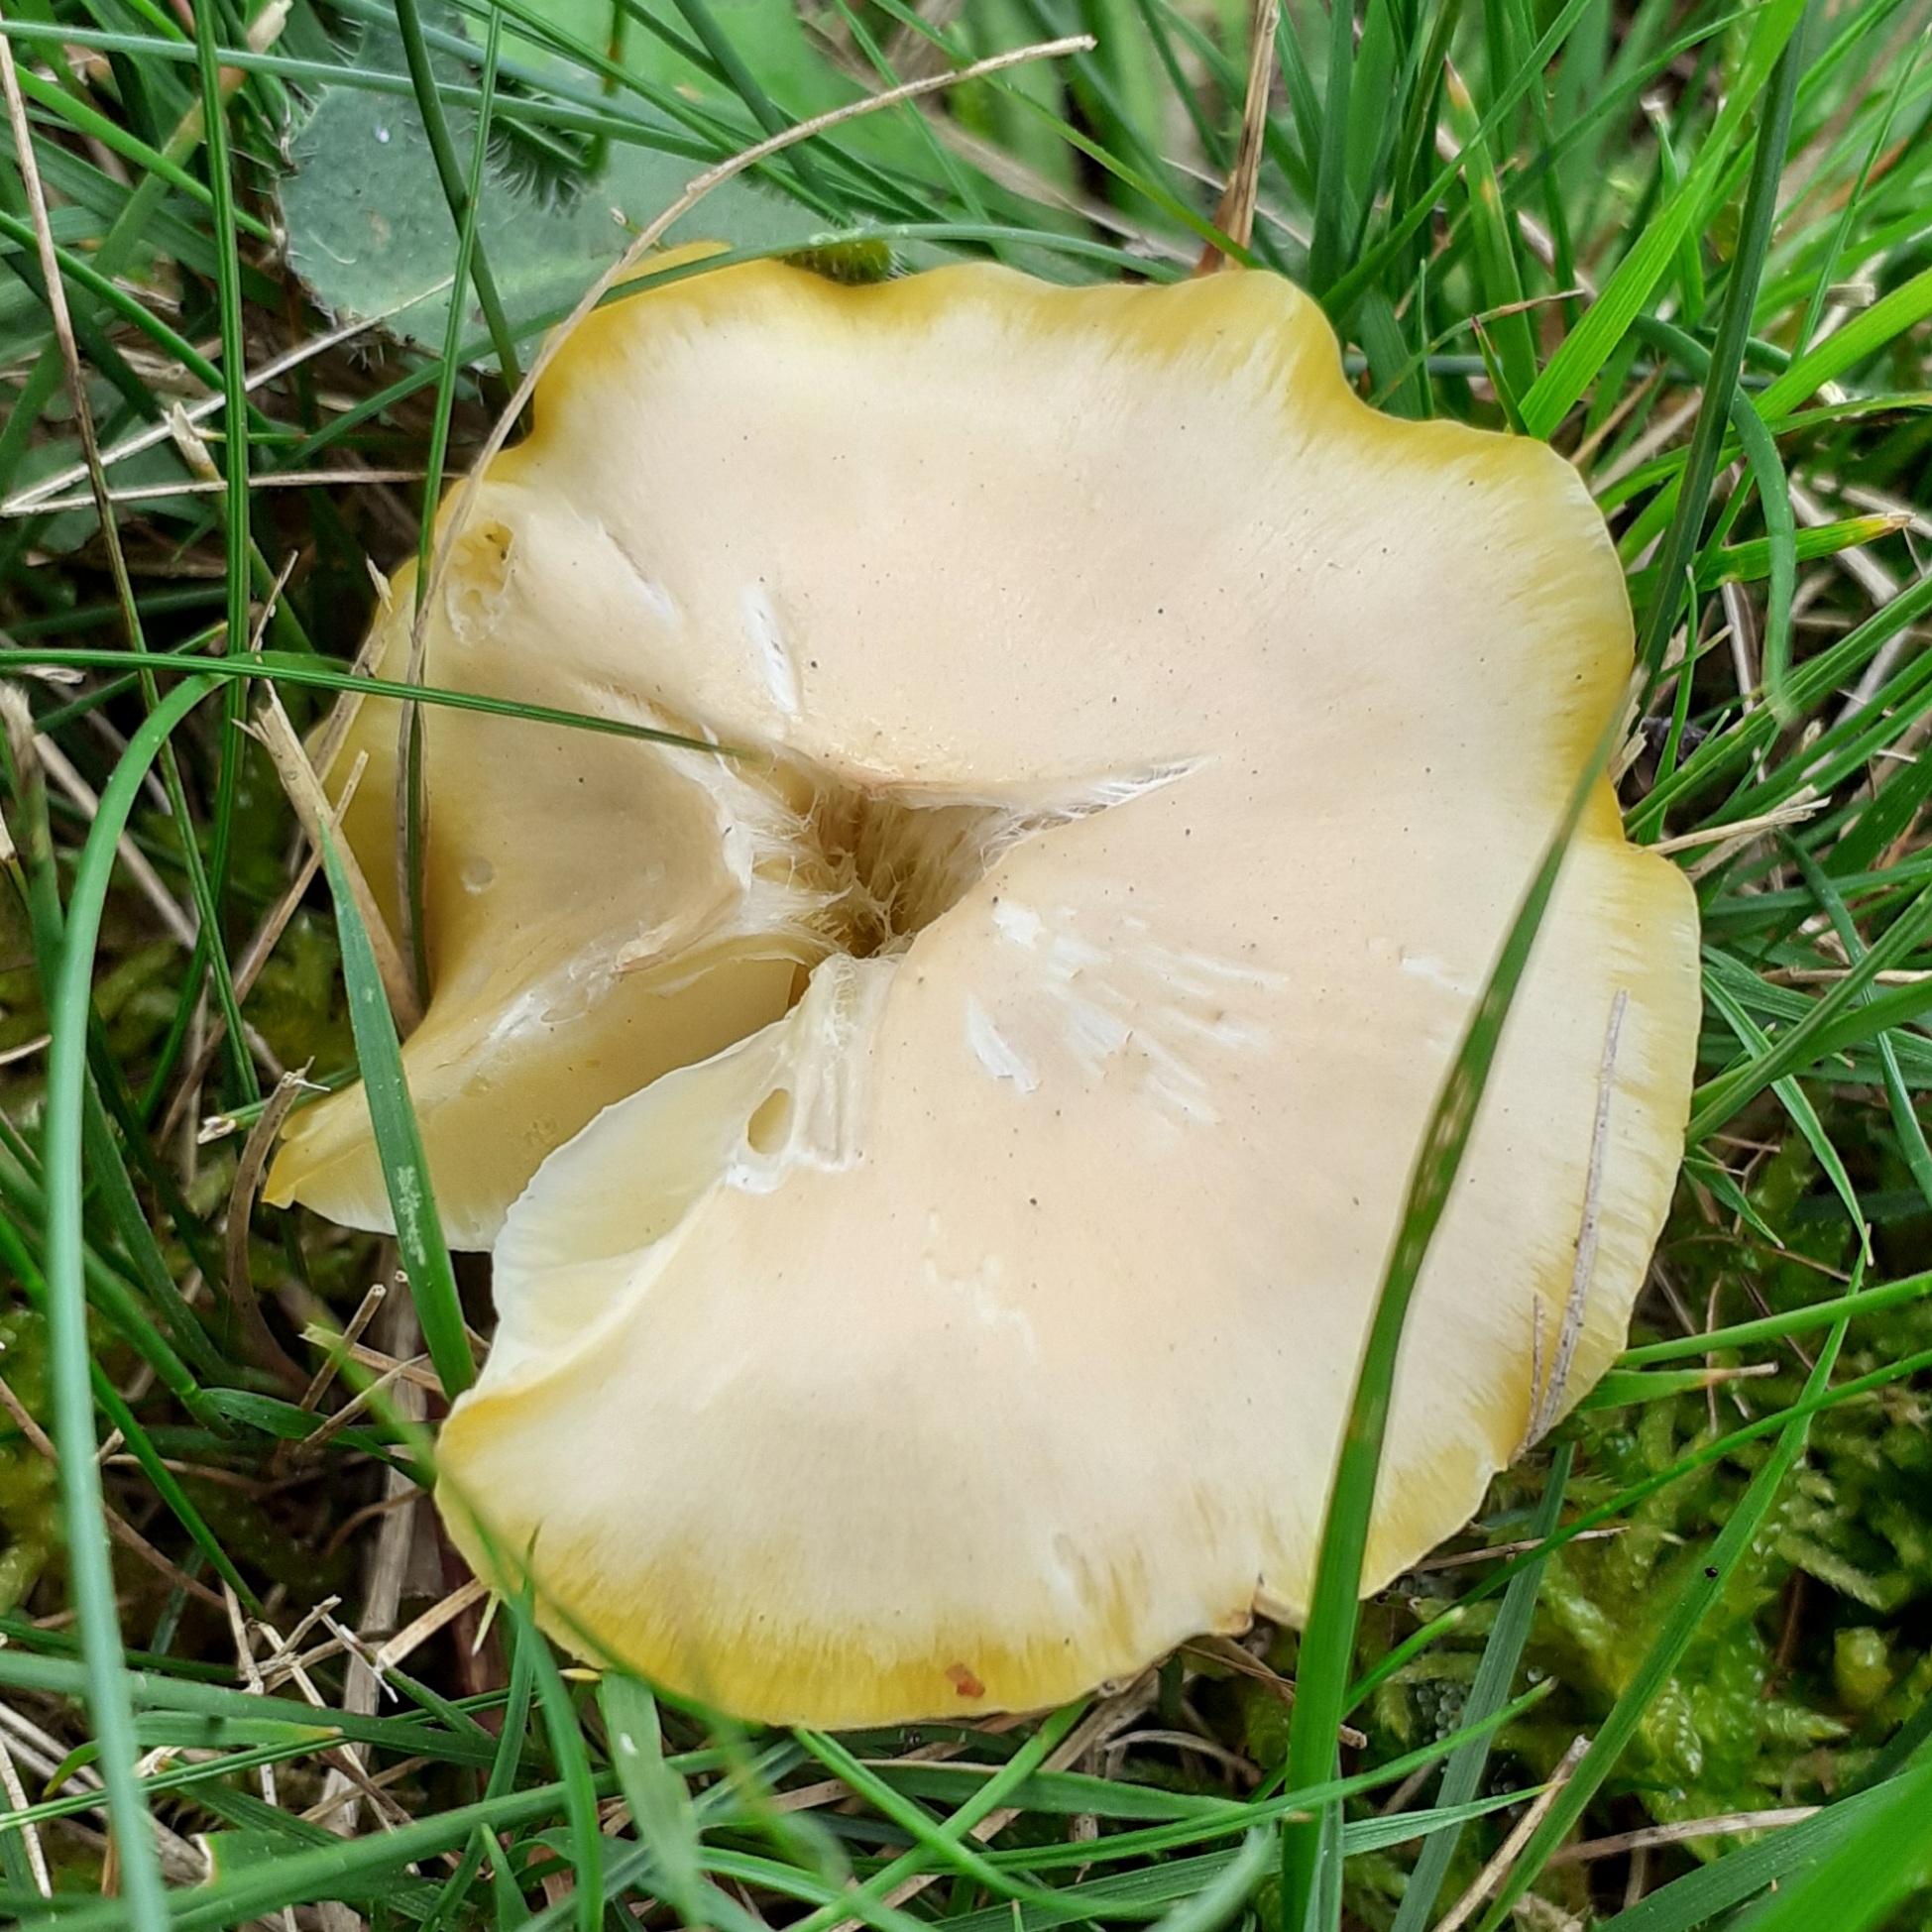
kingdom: Fungi
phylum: Basidiomycota
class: Agaricomycetes
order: Agaricales
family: Hygrophoraceae
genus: Hygrocybe
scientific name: Hygrocybe chlorophana
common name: Golden waxcap
